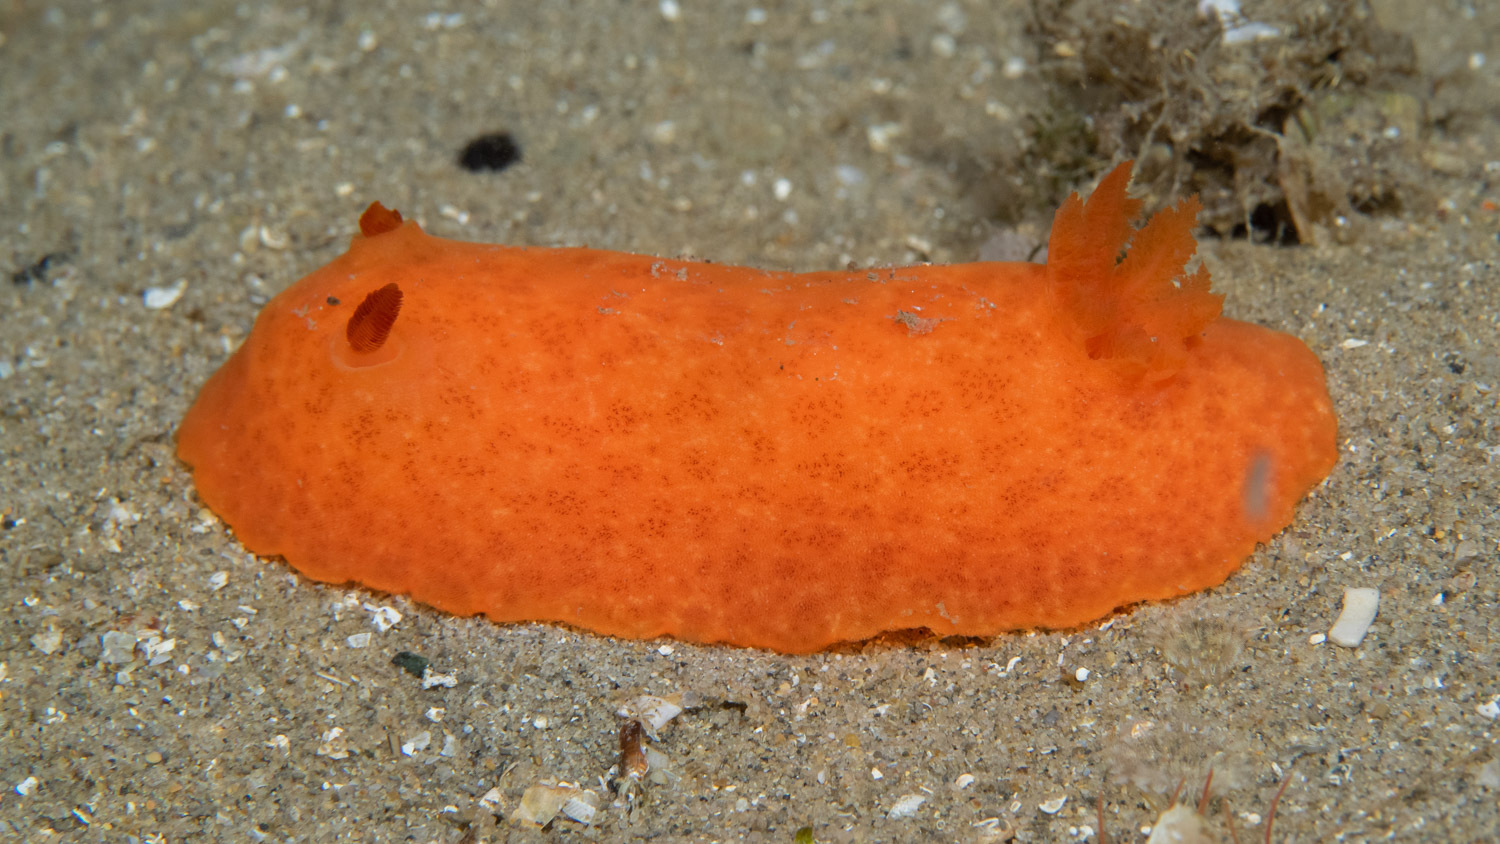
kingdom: Animalia
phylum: Mollusca
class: Gastropoda
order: Nudibranchia
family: Discodorididae
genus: Discodoris
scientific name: Discodoris paroa
